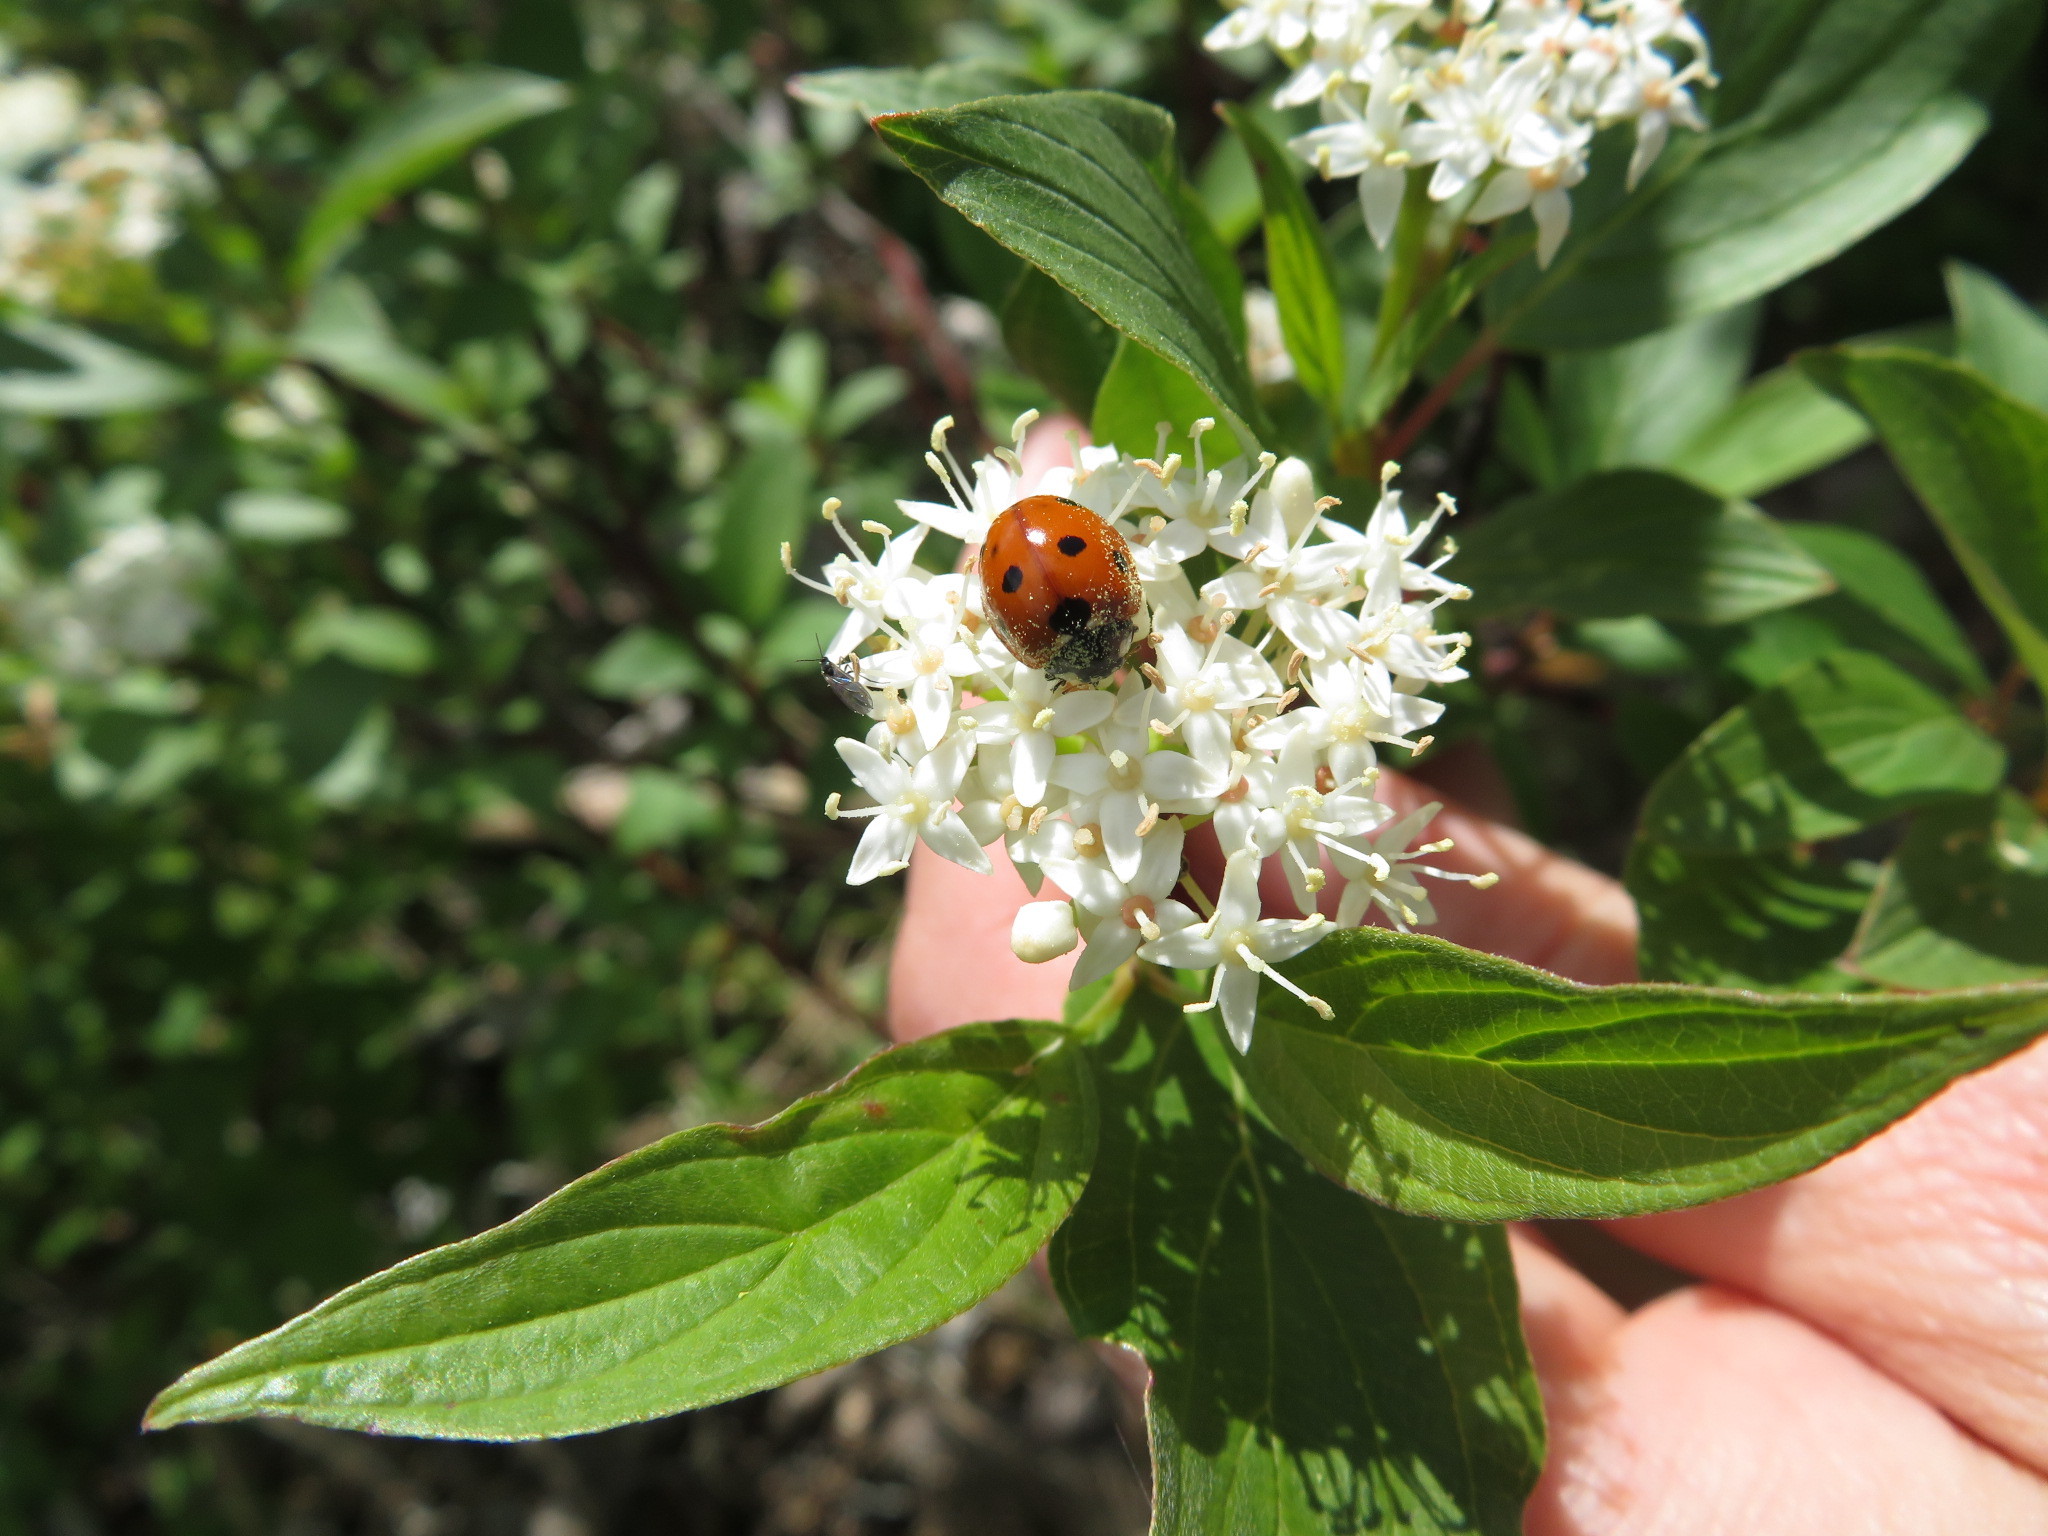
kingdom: Animalia
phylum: Arthropoda
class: Insecta
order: Coleoptera
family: Coccinellidae
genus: Coccinella
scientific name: Coccinella septempunctata
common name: Sevenspotted lady beetle
